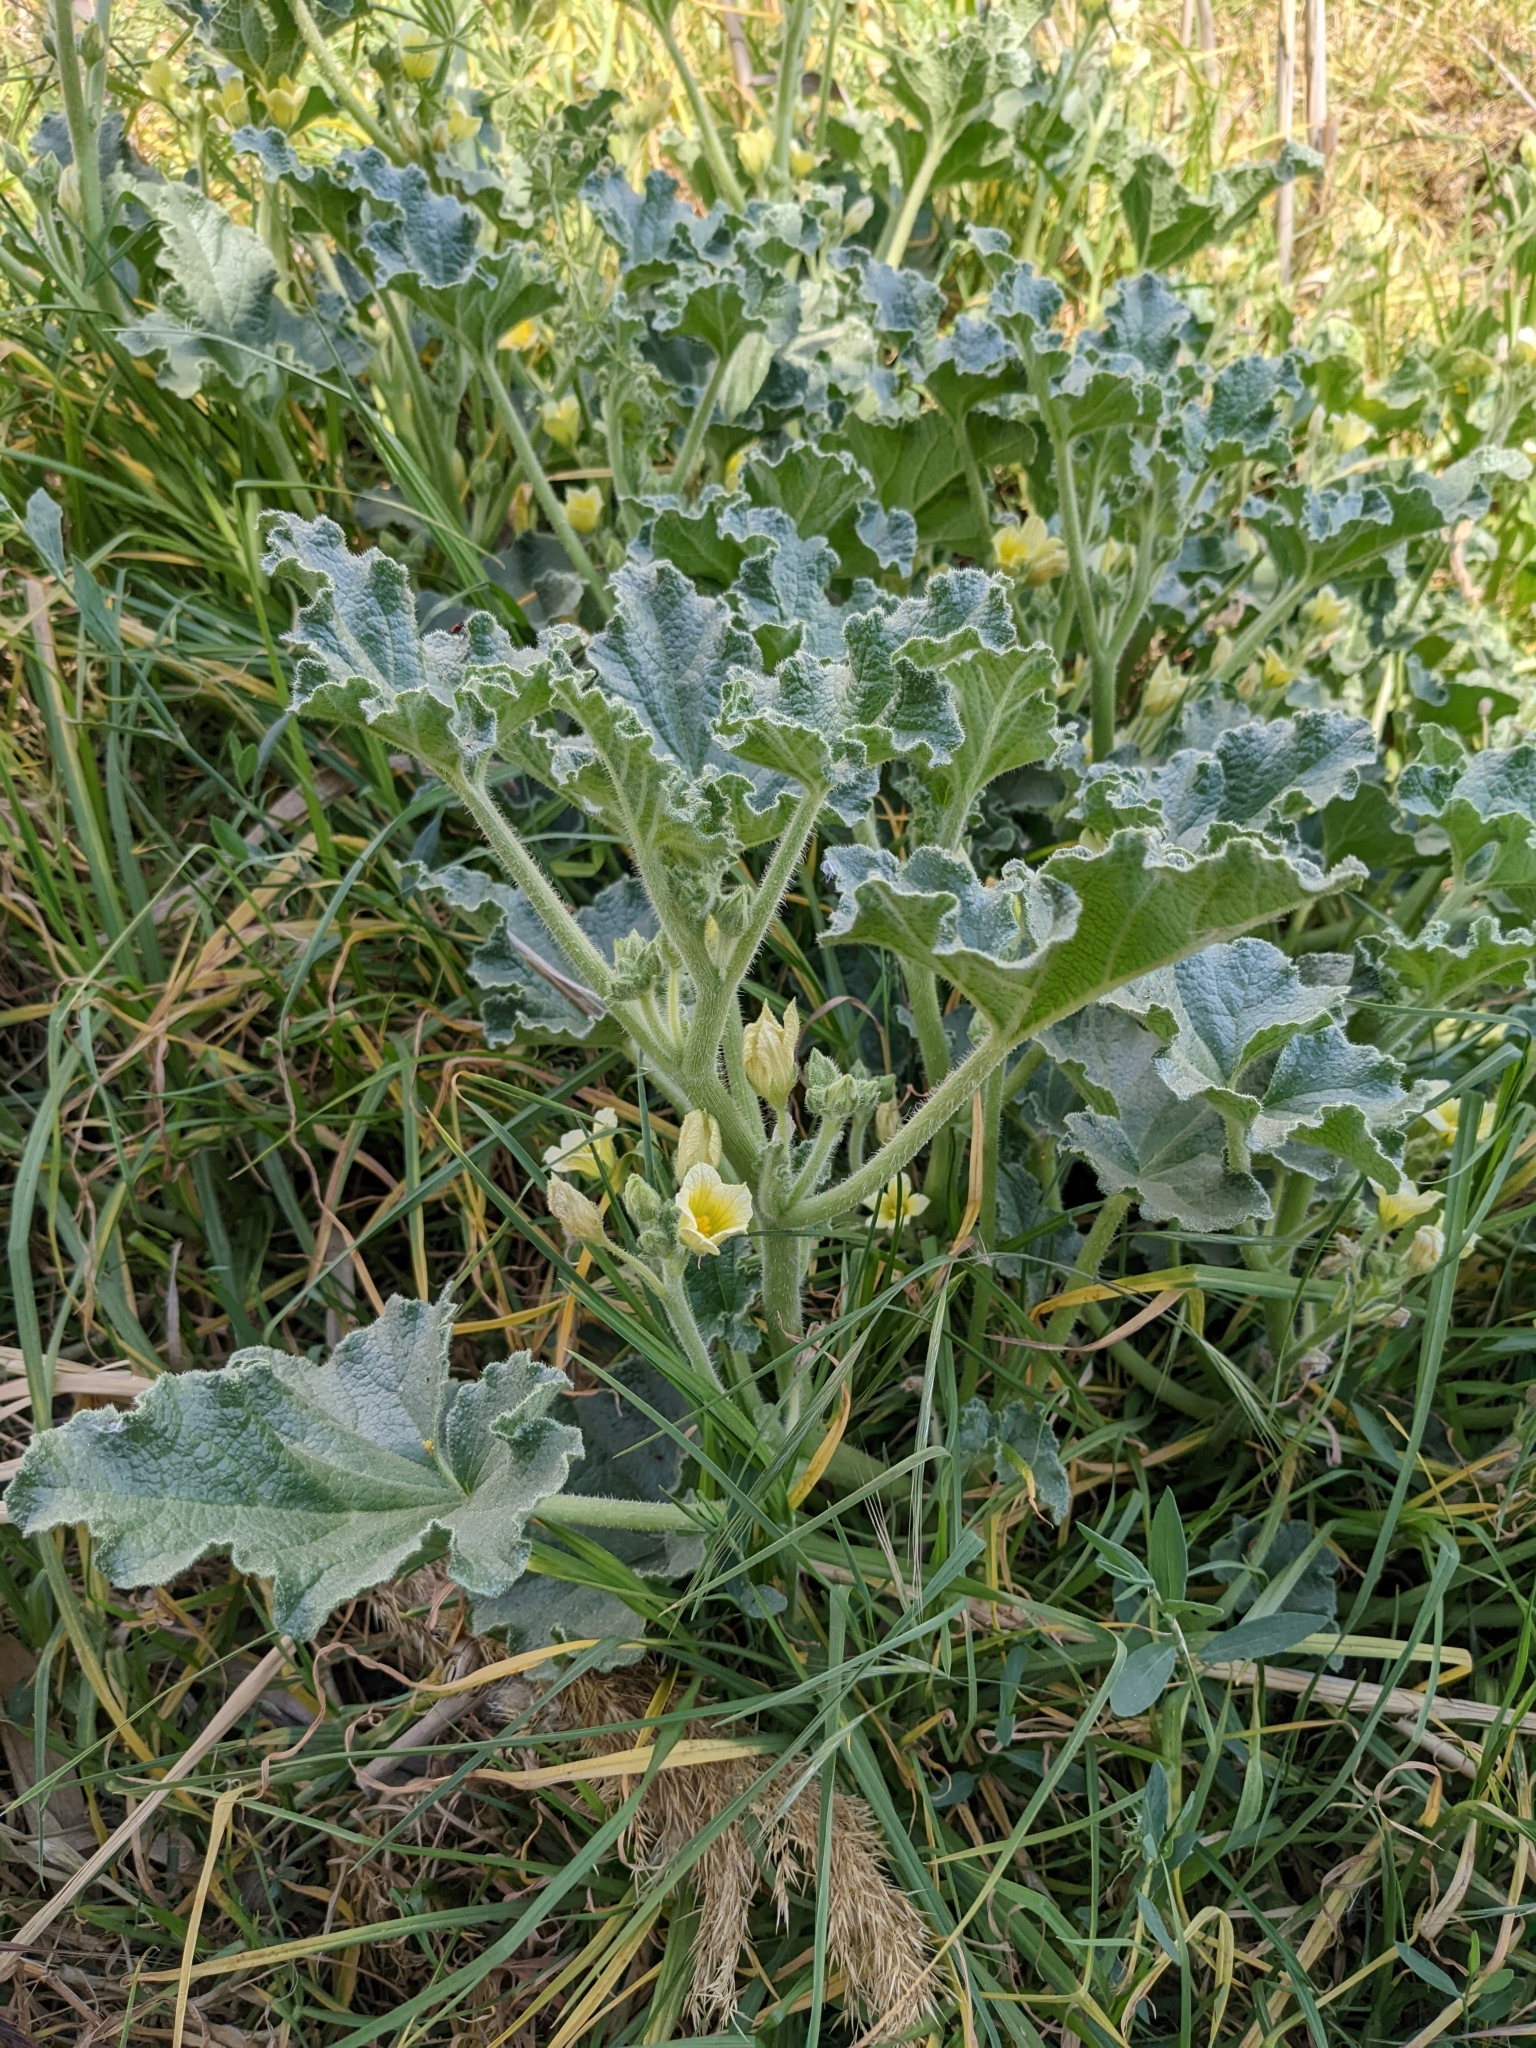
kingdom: Plantae
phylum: Tracheophyta
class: Magnoliopsida
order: Cucurbitales
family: Cucurbitaceae
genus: Ecballium
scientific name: Ecballium elaterium
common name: Squirting cucumber
